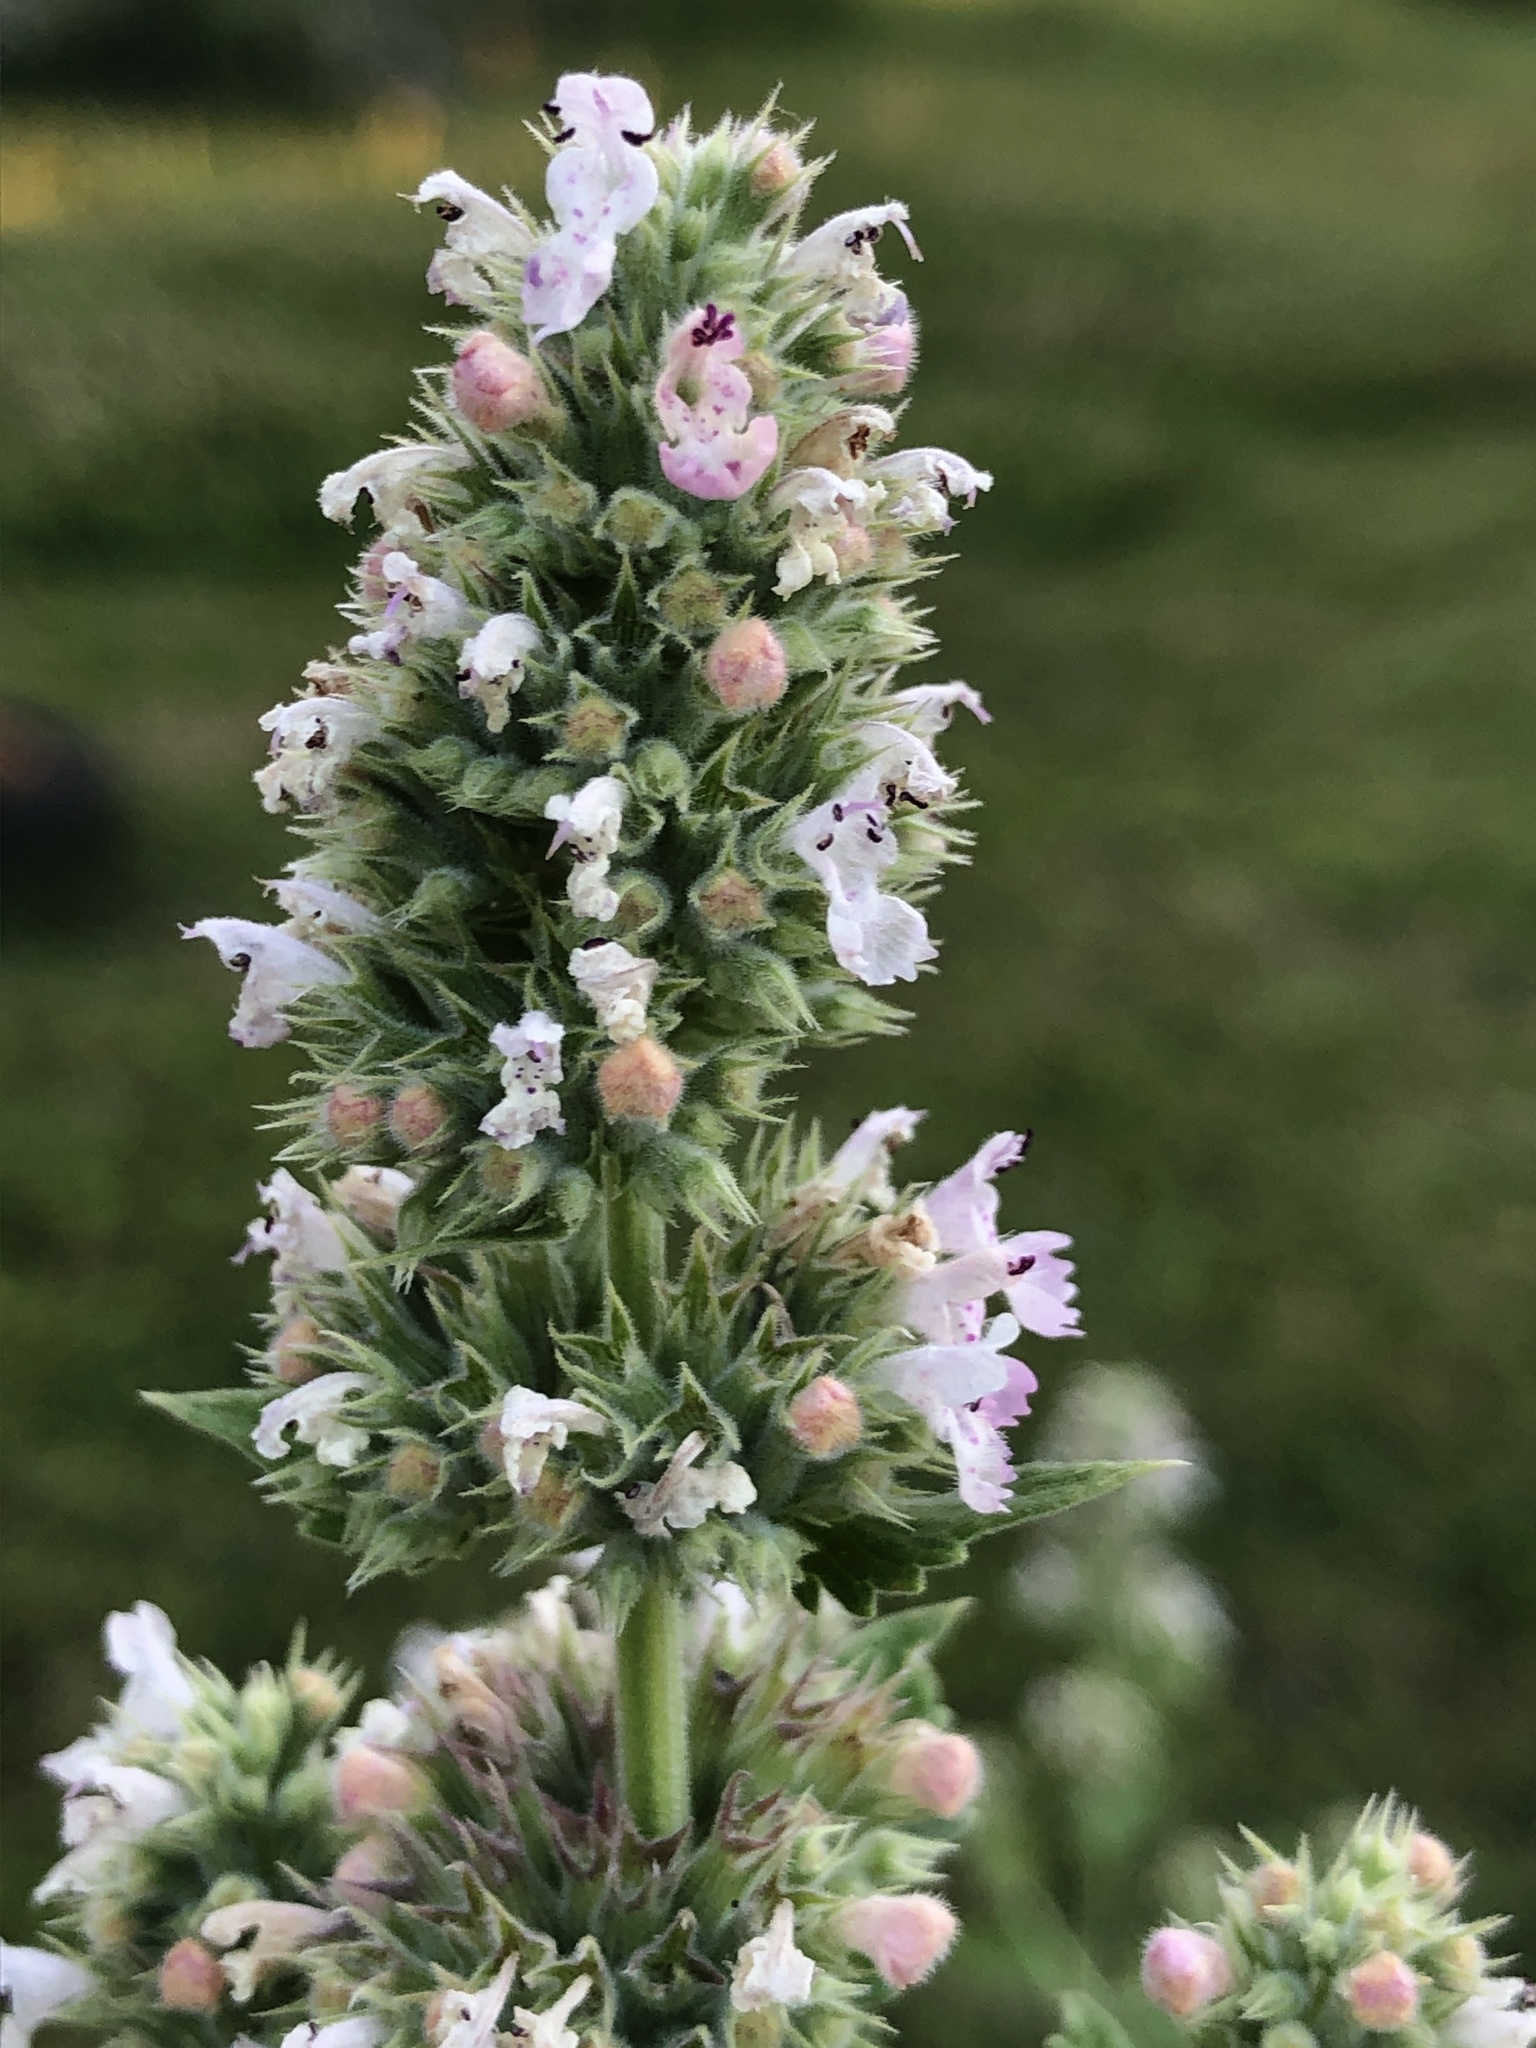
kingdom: Plantae
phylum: Tracheophyta
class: Magnoliopsida
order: Lamiales
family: Lamiaceae
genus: Nepeta
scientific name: Nepeta cataria
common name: Catnip
